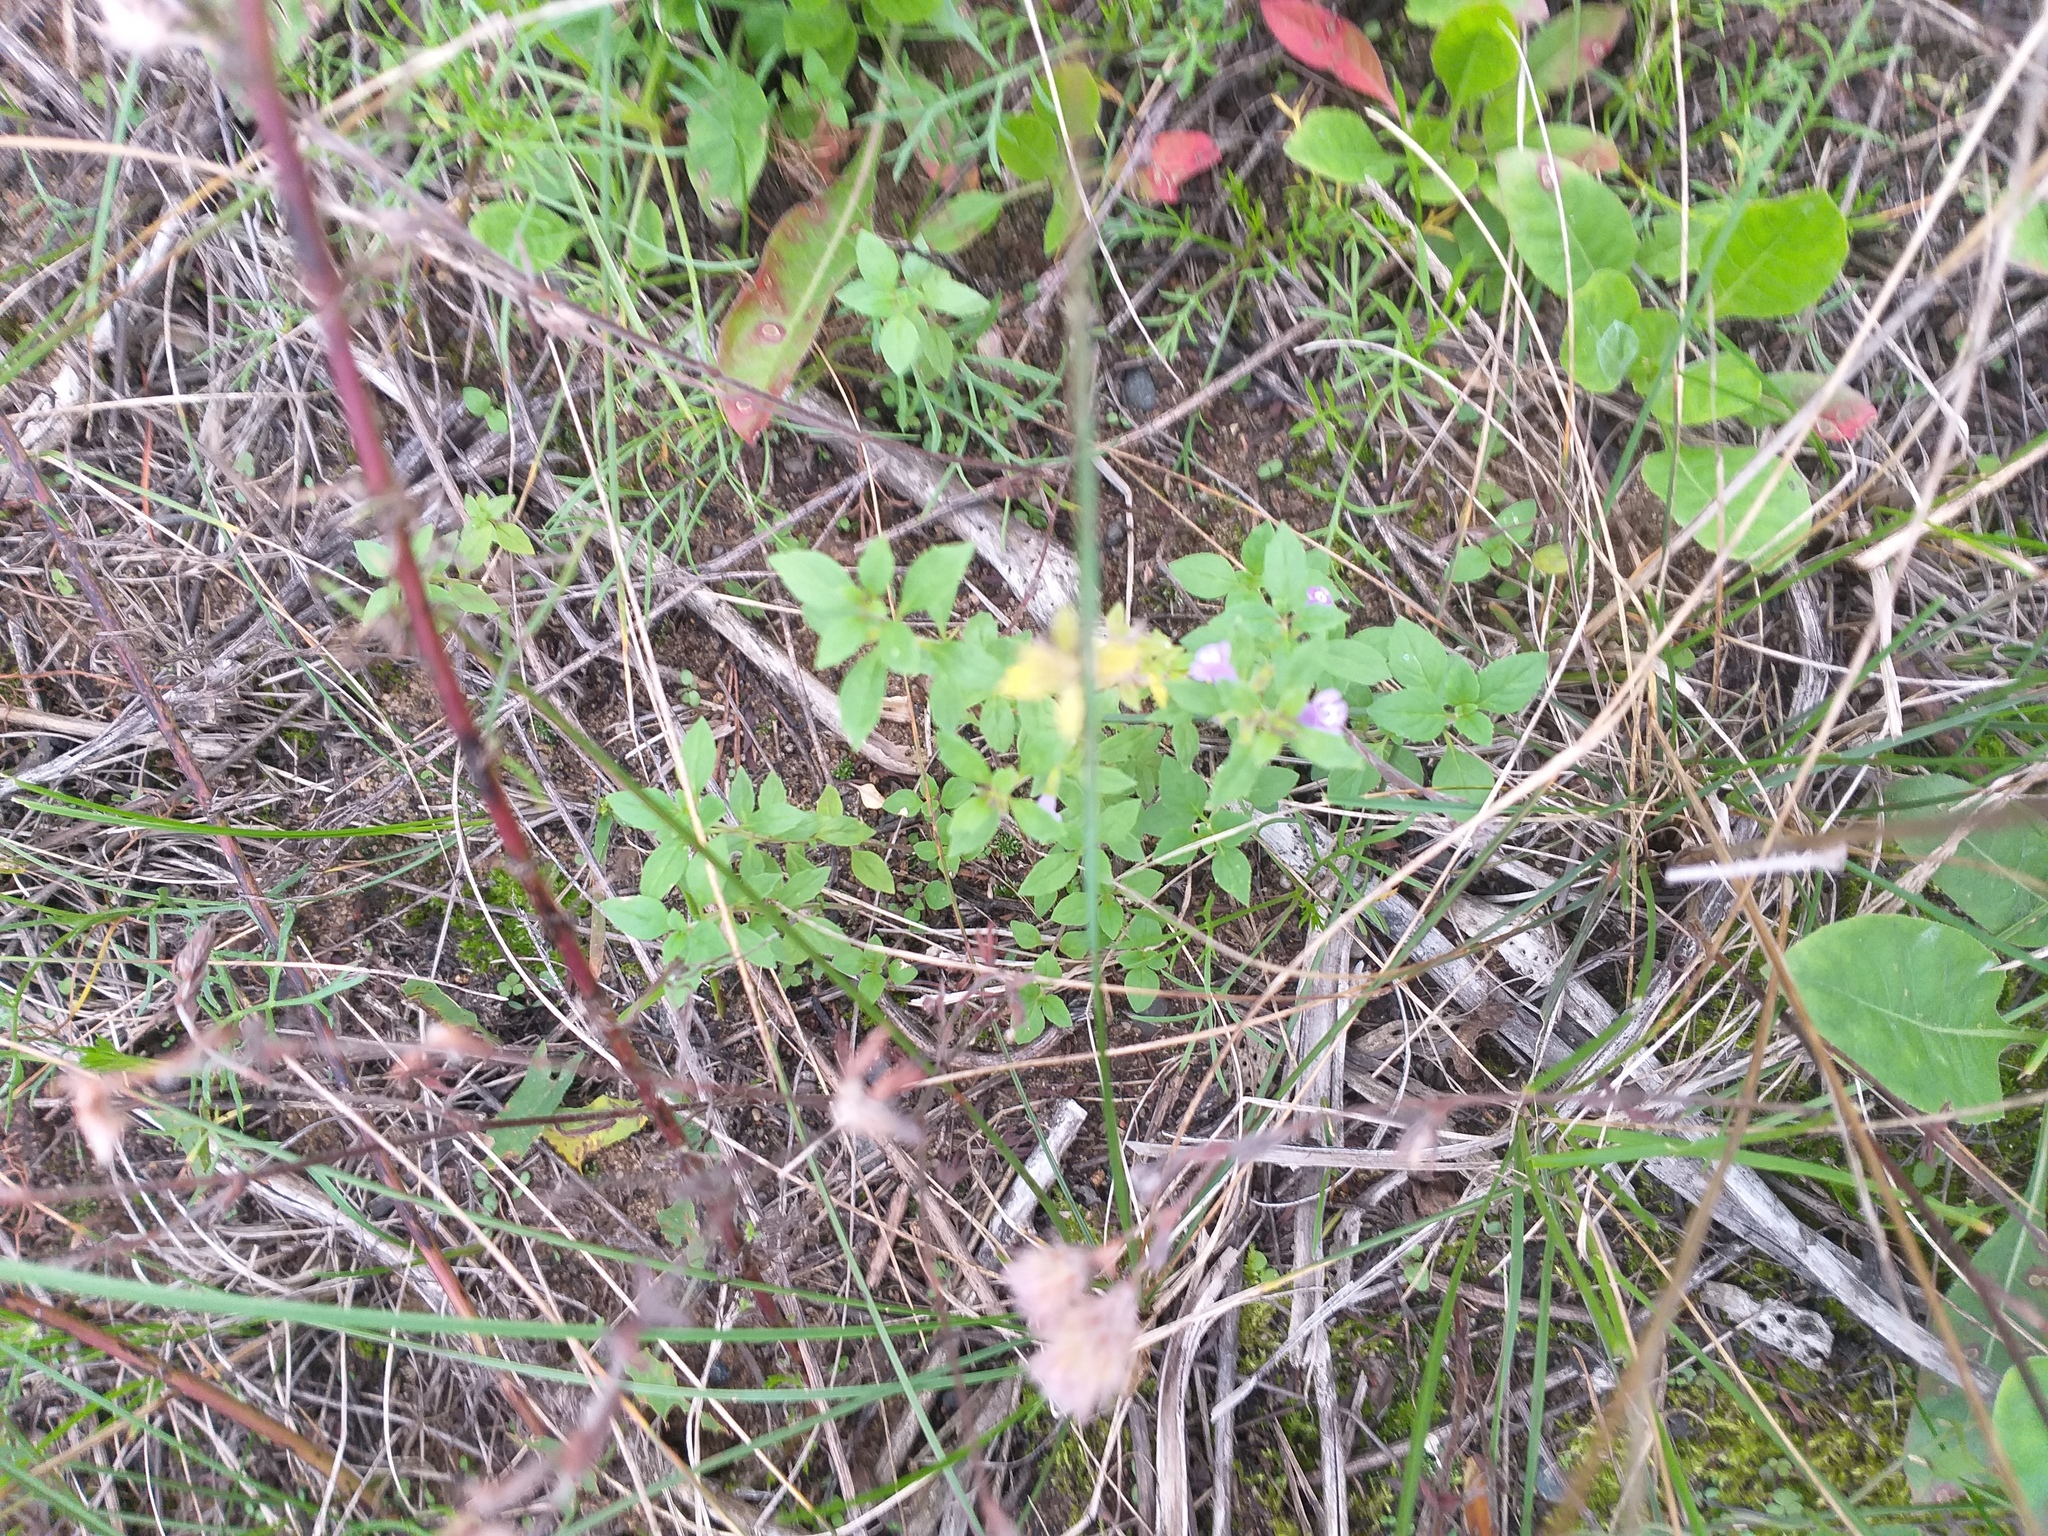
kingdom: Plantae
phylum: Tracheophyta
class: Magnoliopsida
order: Lamiales
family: Lamiaceae
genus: Clinopodium
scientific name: Clinopodium acinos
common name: Basil thyme
